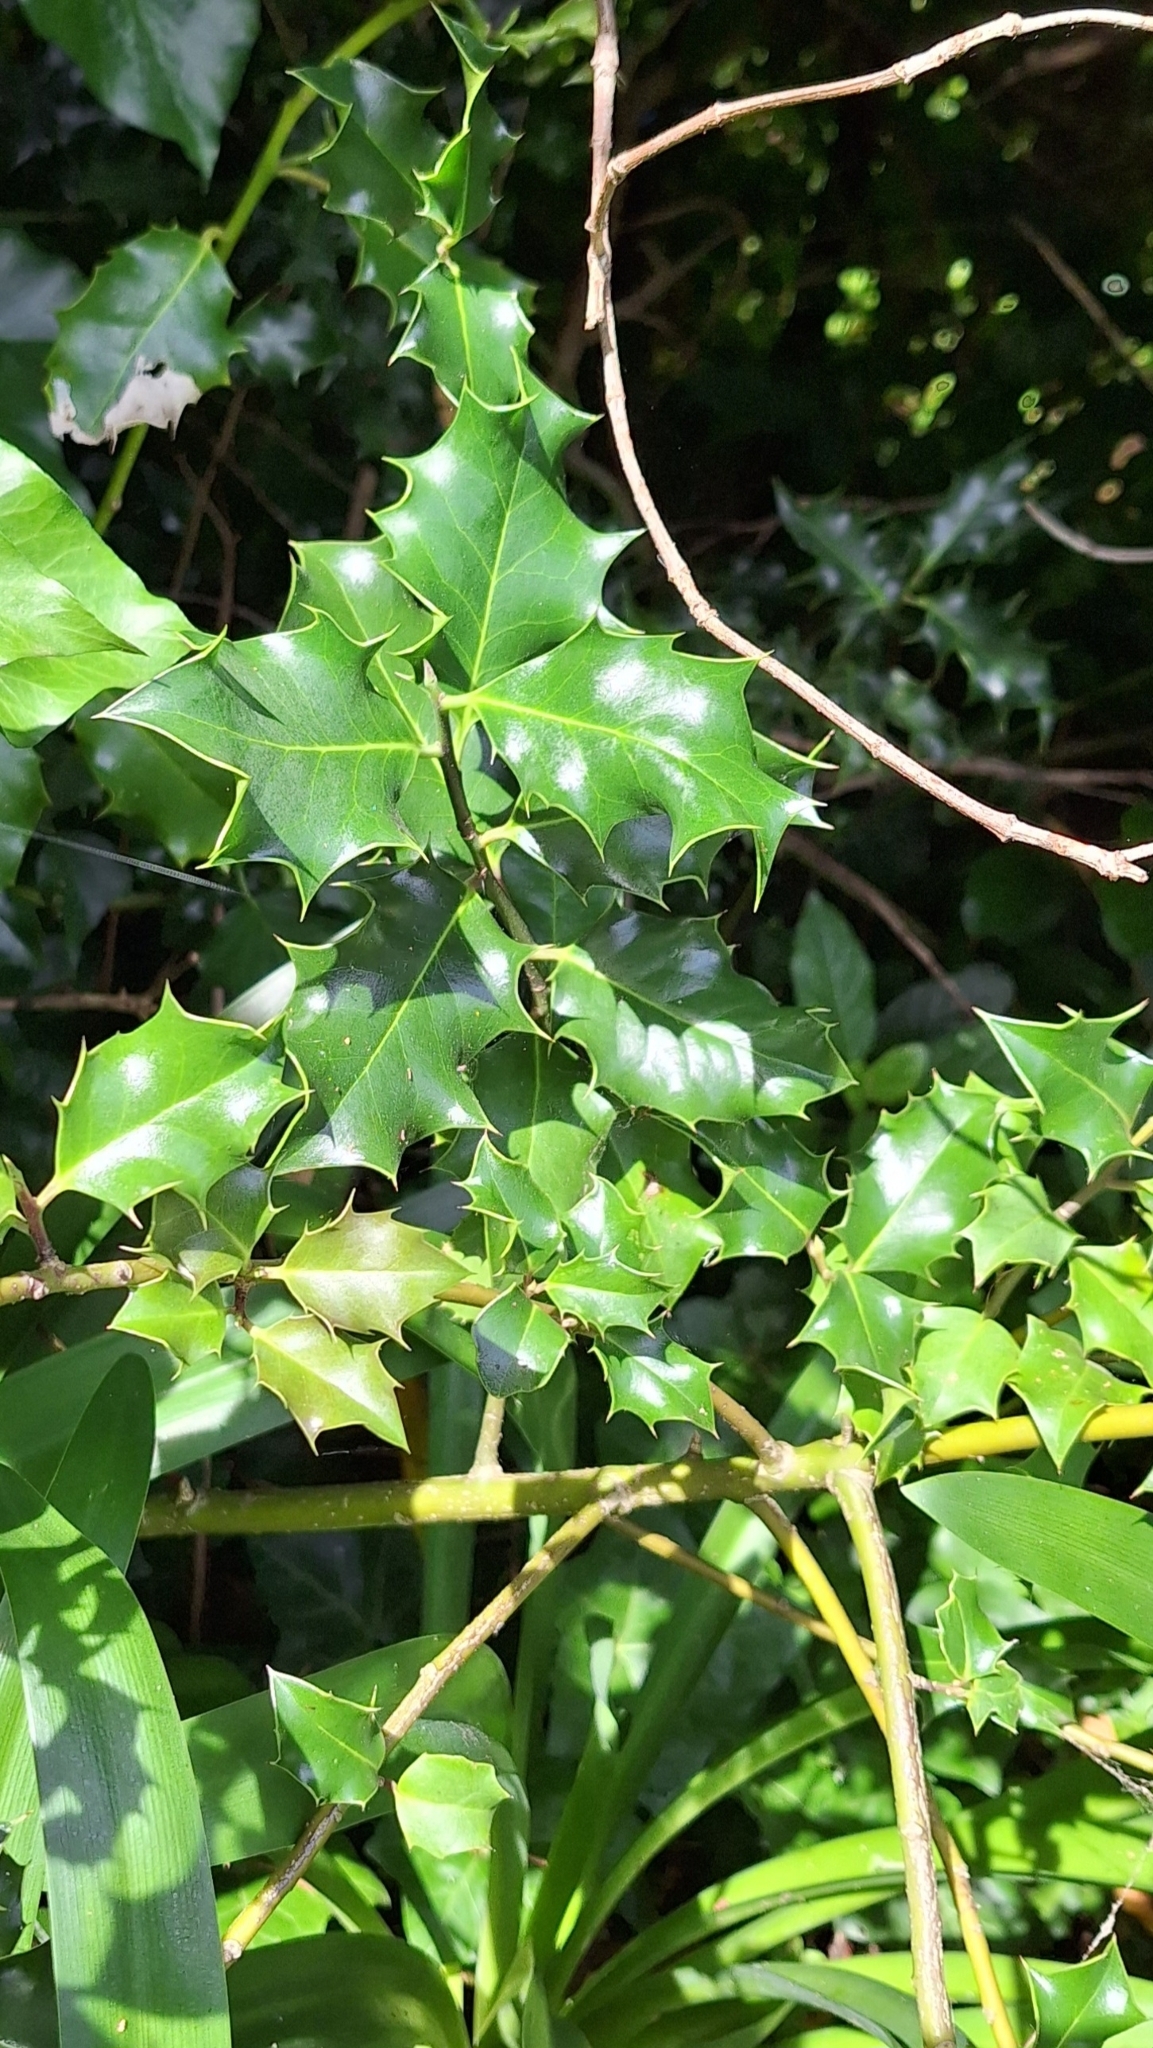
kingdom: Plantae
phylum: Tracheophyta
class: Magnoliopsida
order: Aquifoliales
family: Aquifoliaceae
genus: Ilex
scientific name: Ilex aquifolium
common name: English holly
